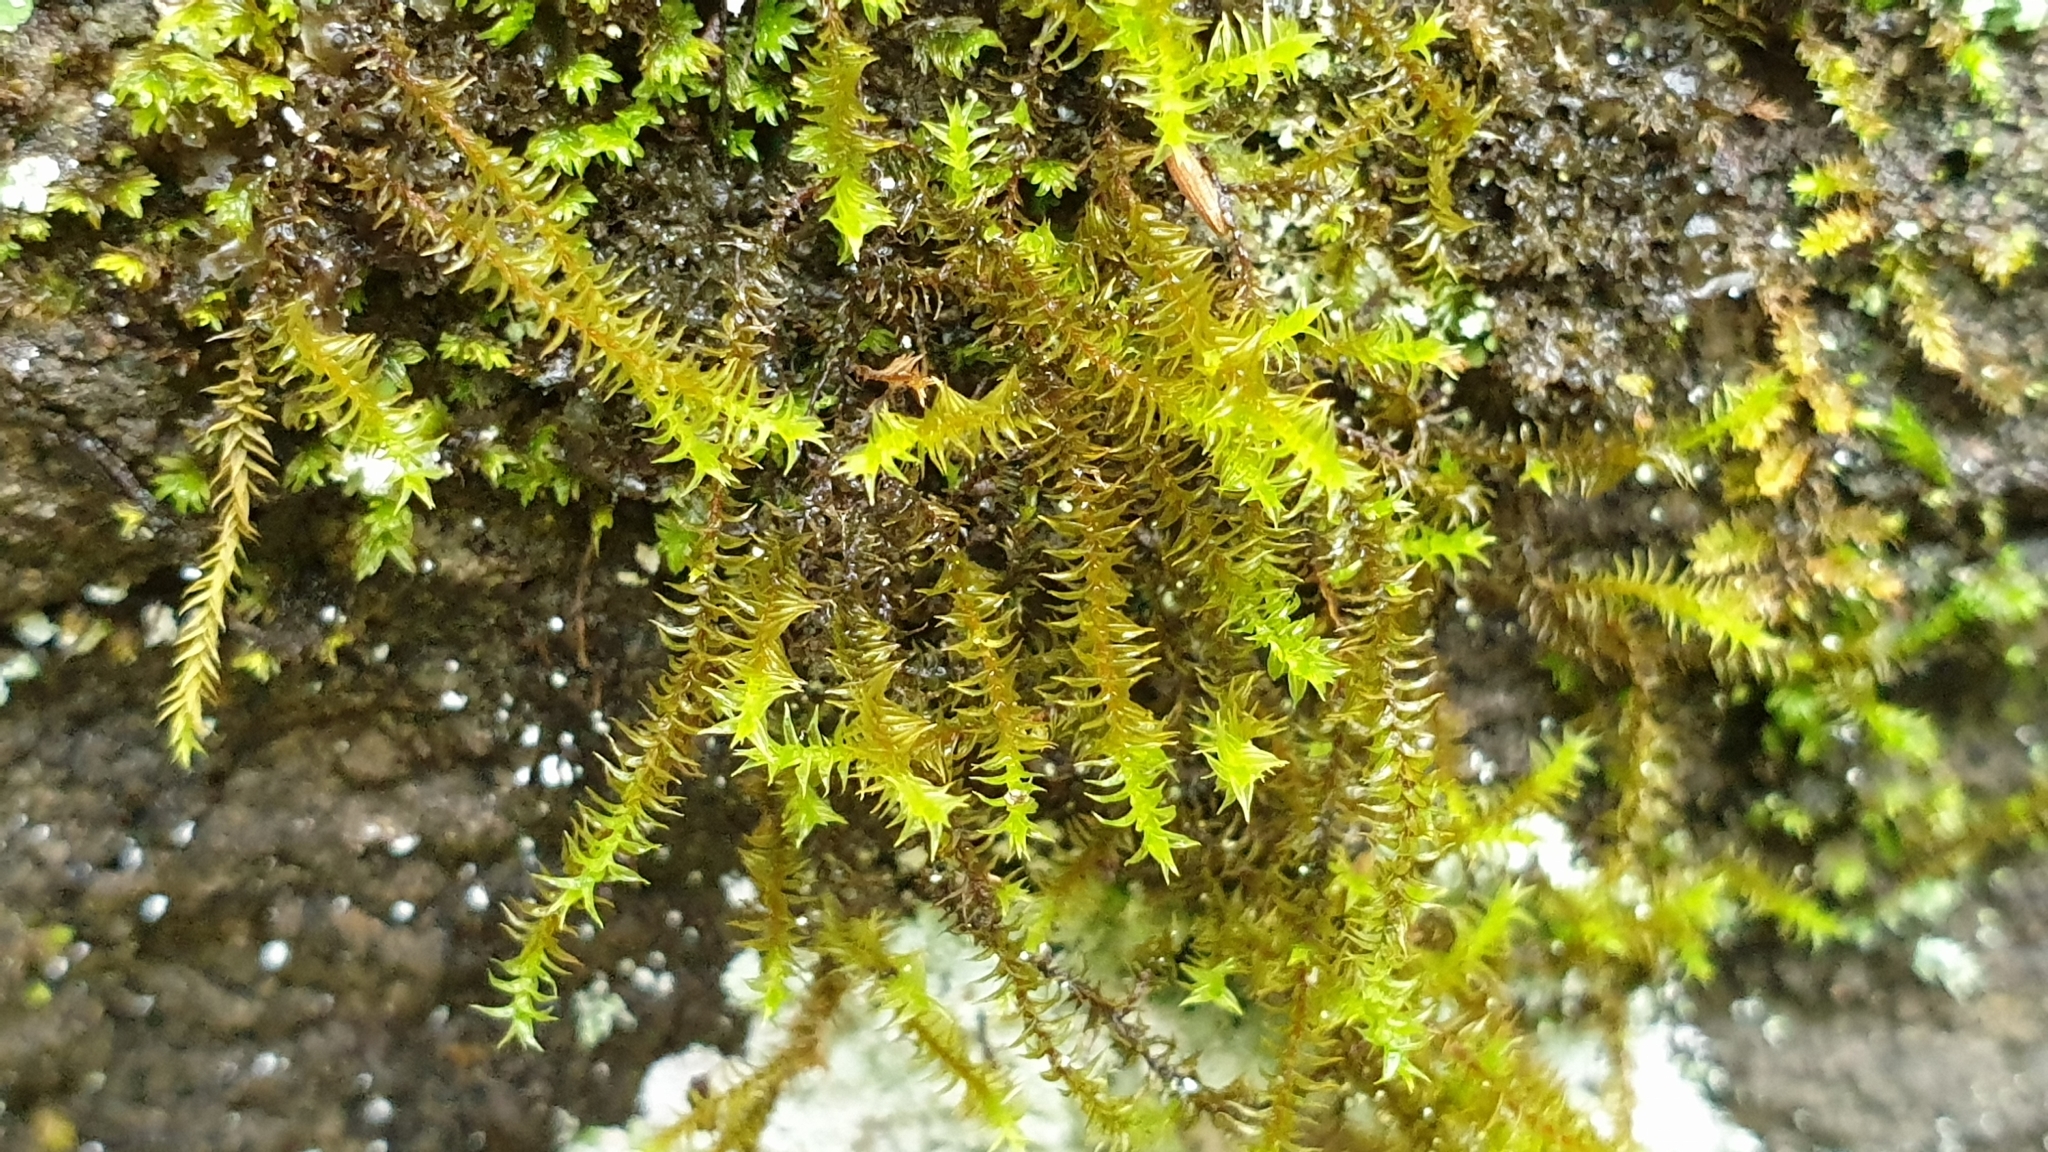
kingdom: Plantae
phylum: Bryophyta
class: Bryopsida
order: Pottiales
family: Pottiaceae
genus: Triquetrella
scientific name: Triquetrella papillata
